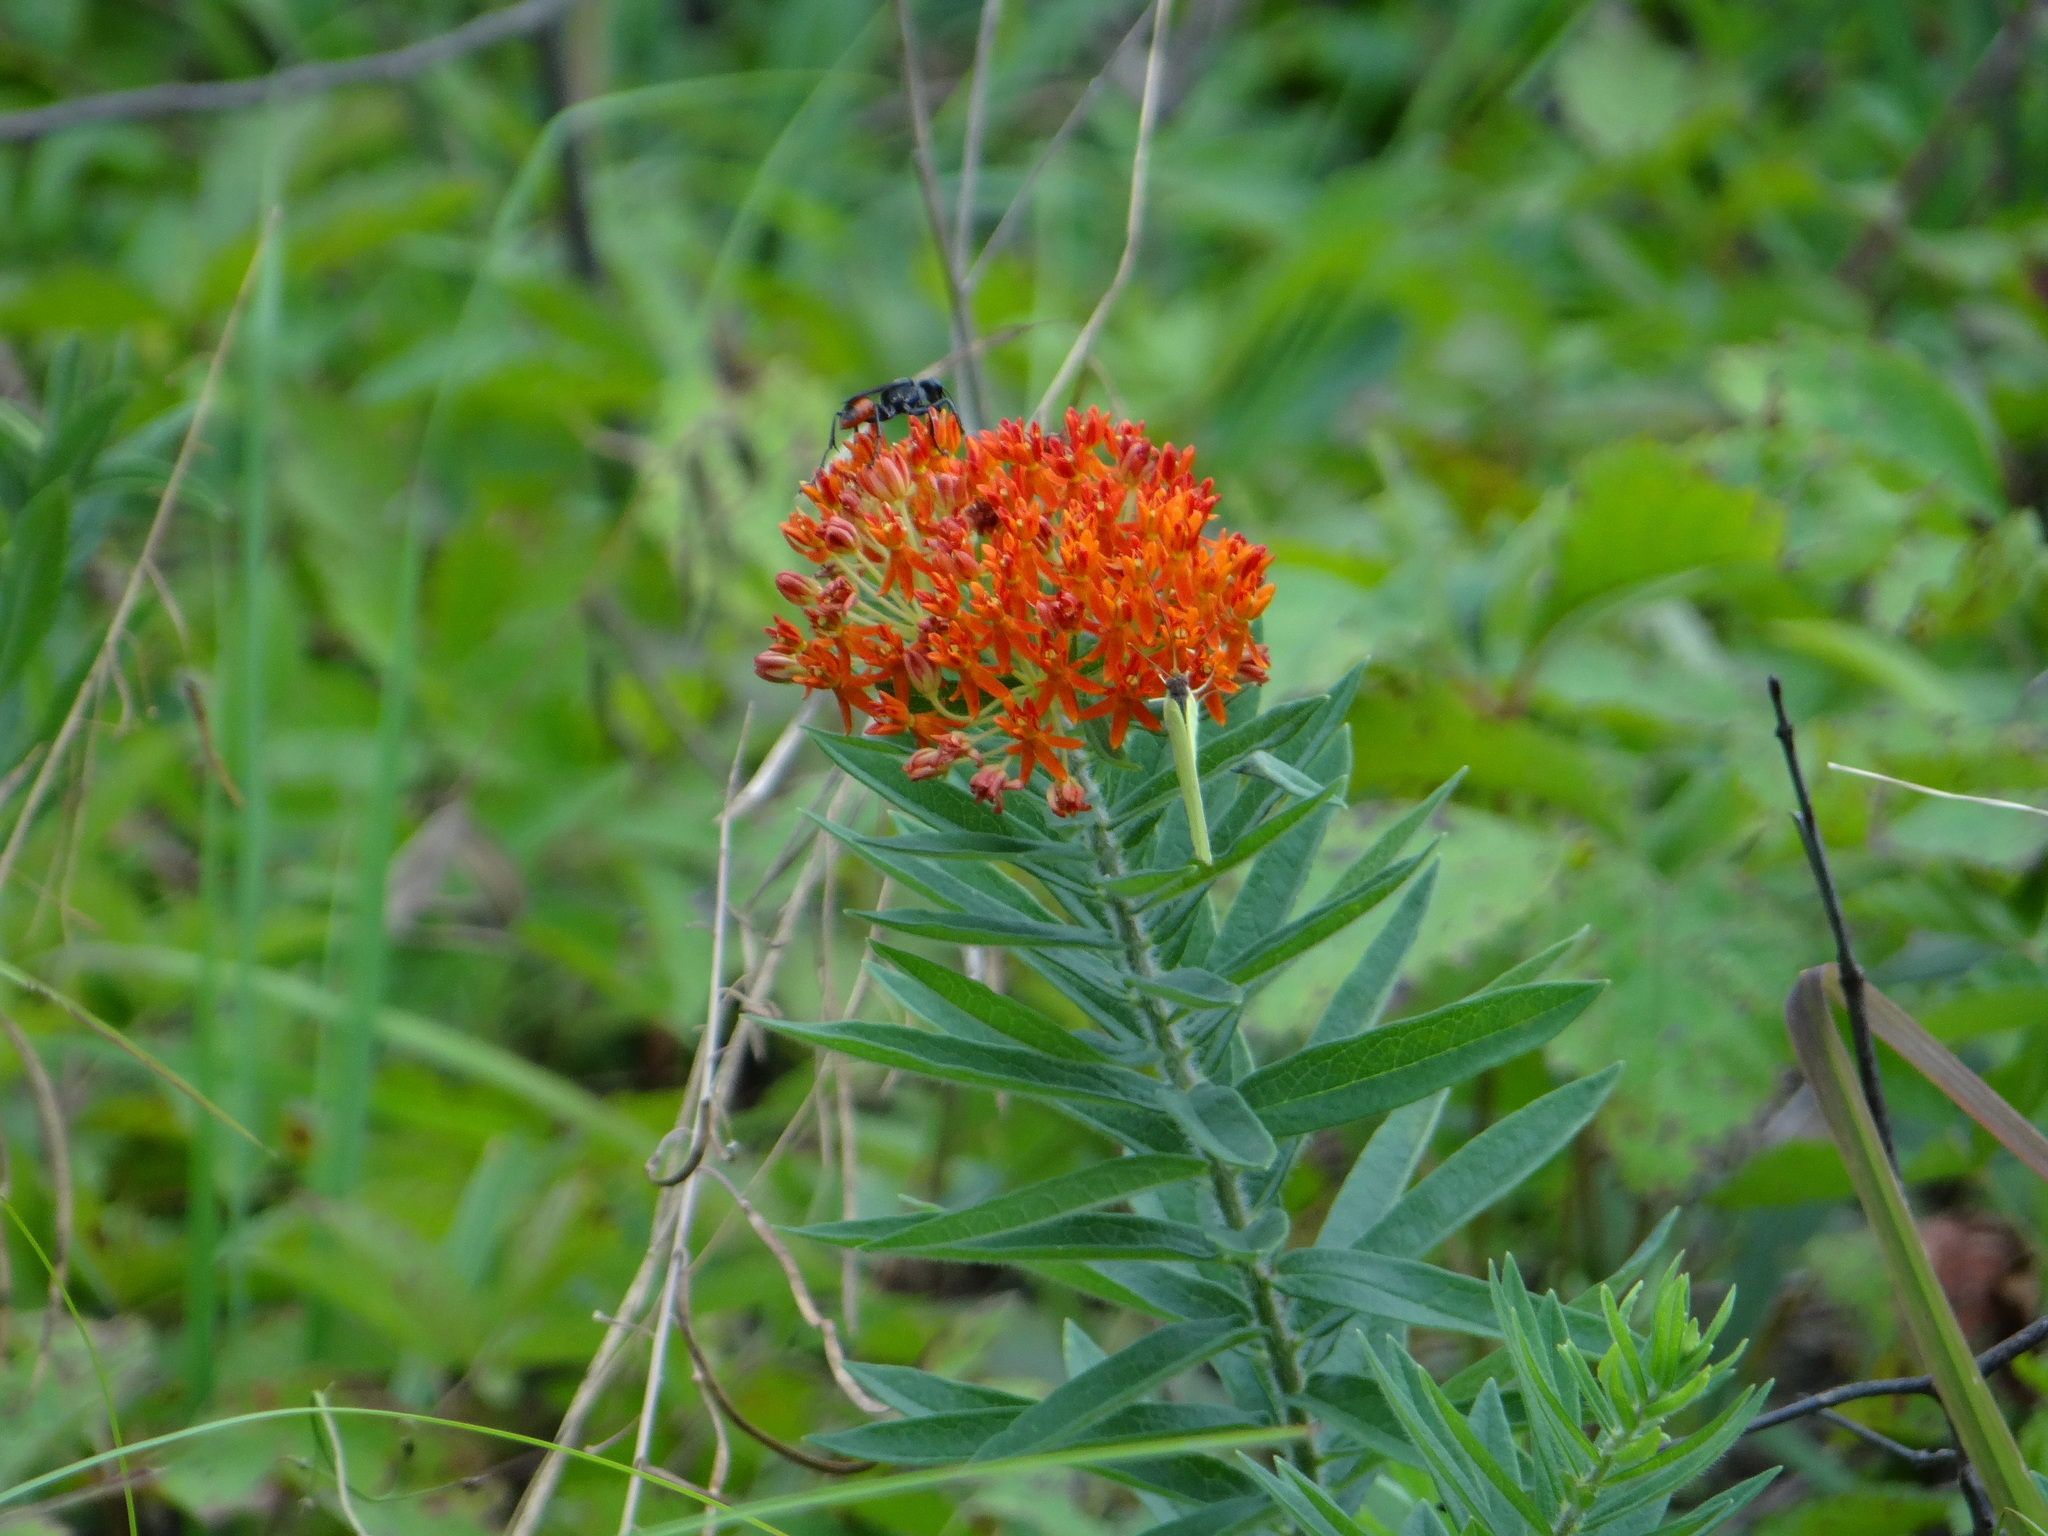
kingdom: Plantae
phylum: Tracheophyta
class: Magnoliopsida
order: Gentianales
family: Apocynaceae
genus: Asclepias
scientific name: Asclepias tuberosa
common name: Butterfly milkweed
